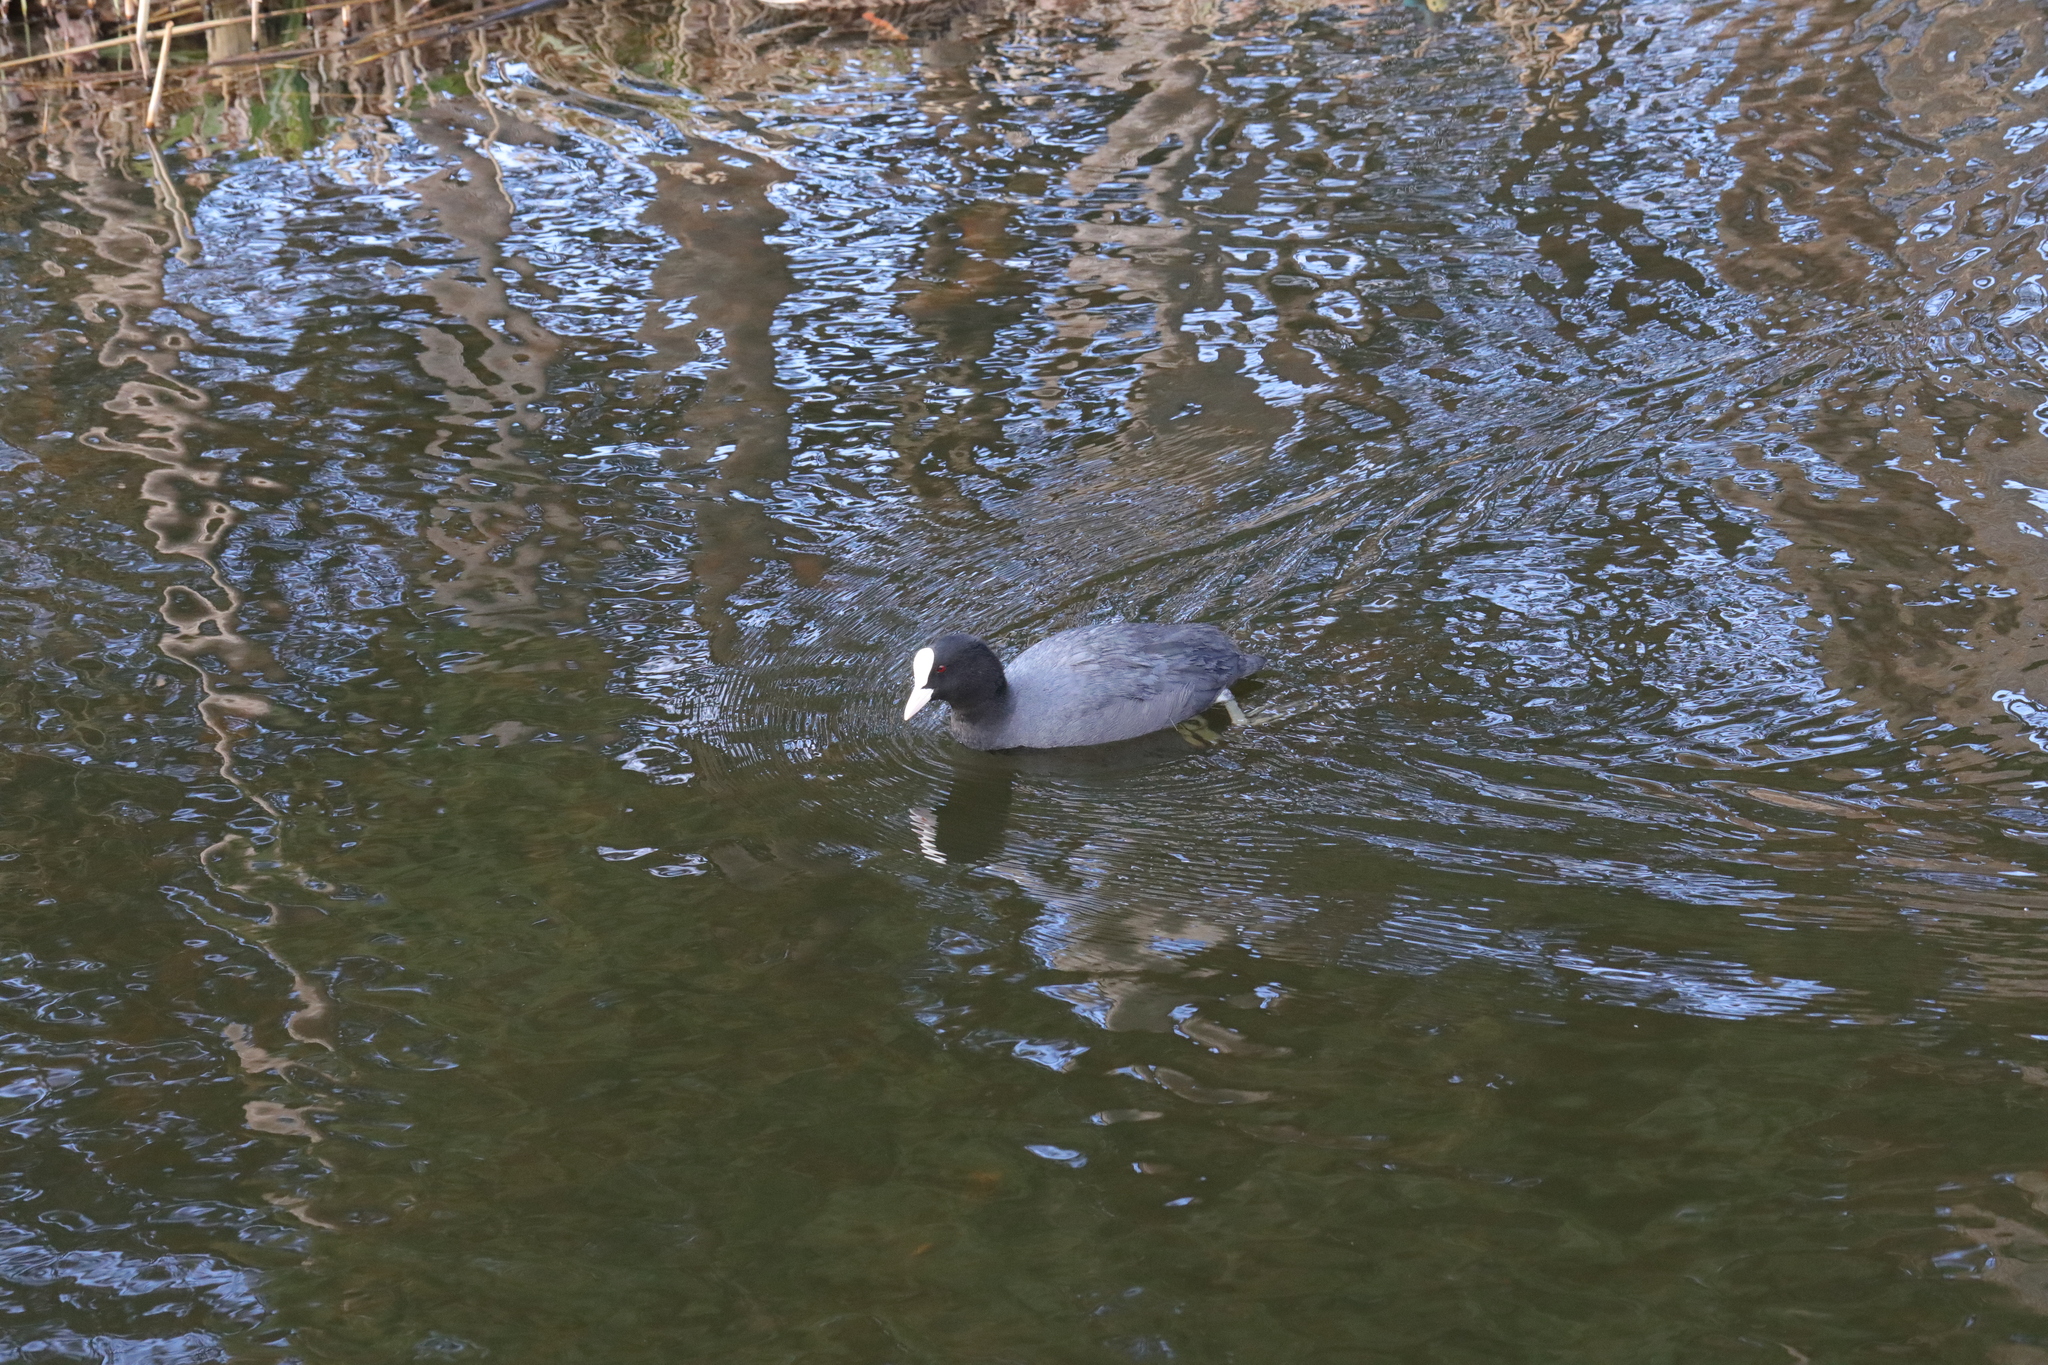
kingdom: Animalia
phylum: Chordata
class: Aves
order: Gruiformes
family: Rallidae
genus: Fulica
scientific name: Fulica atra
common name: Eurasian coot
